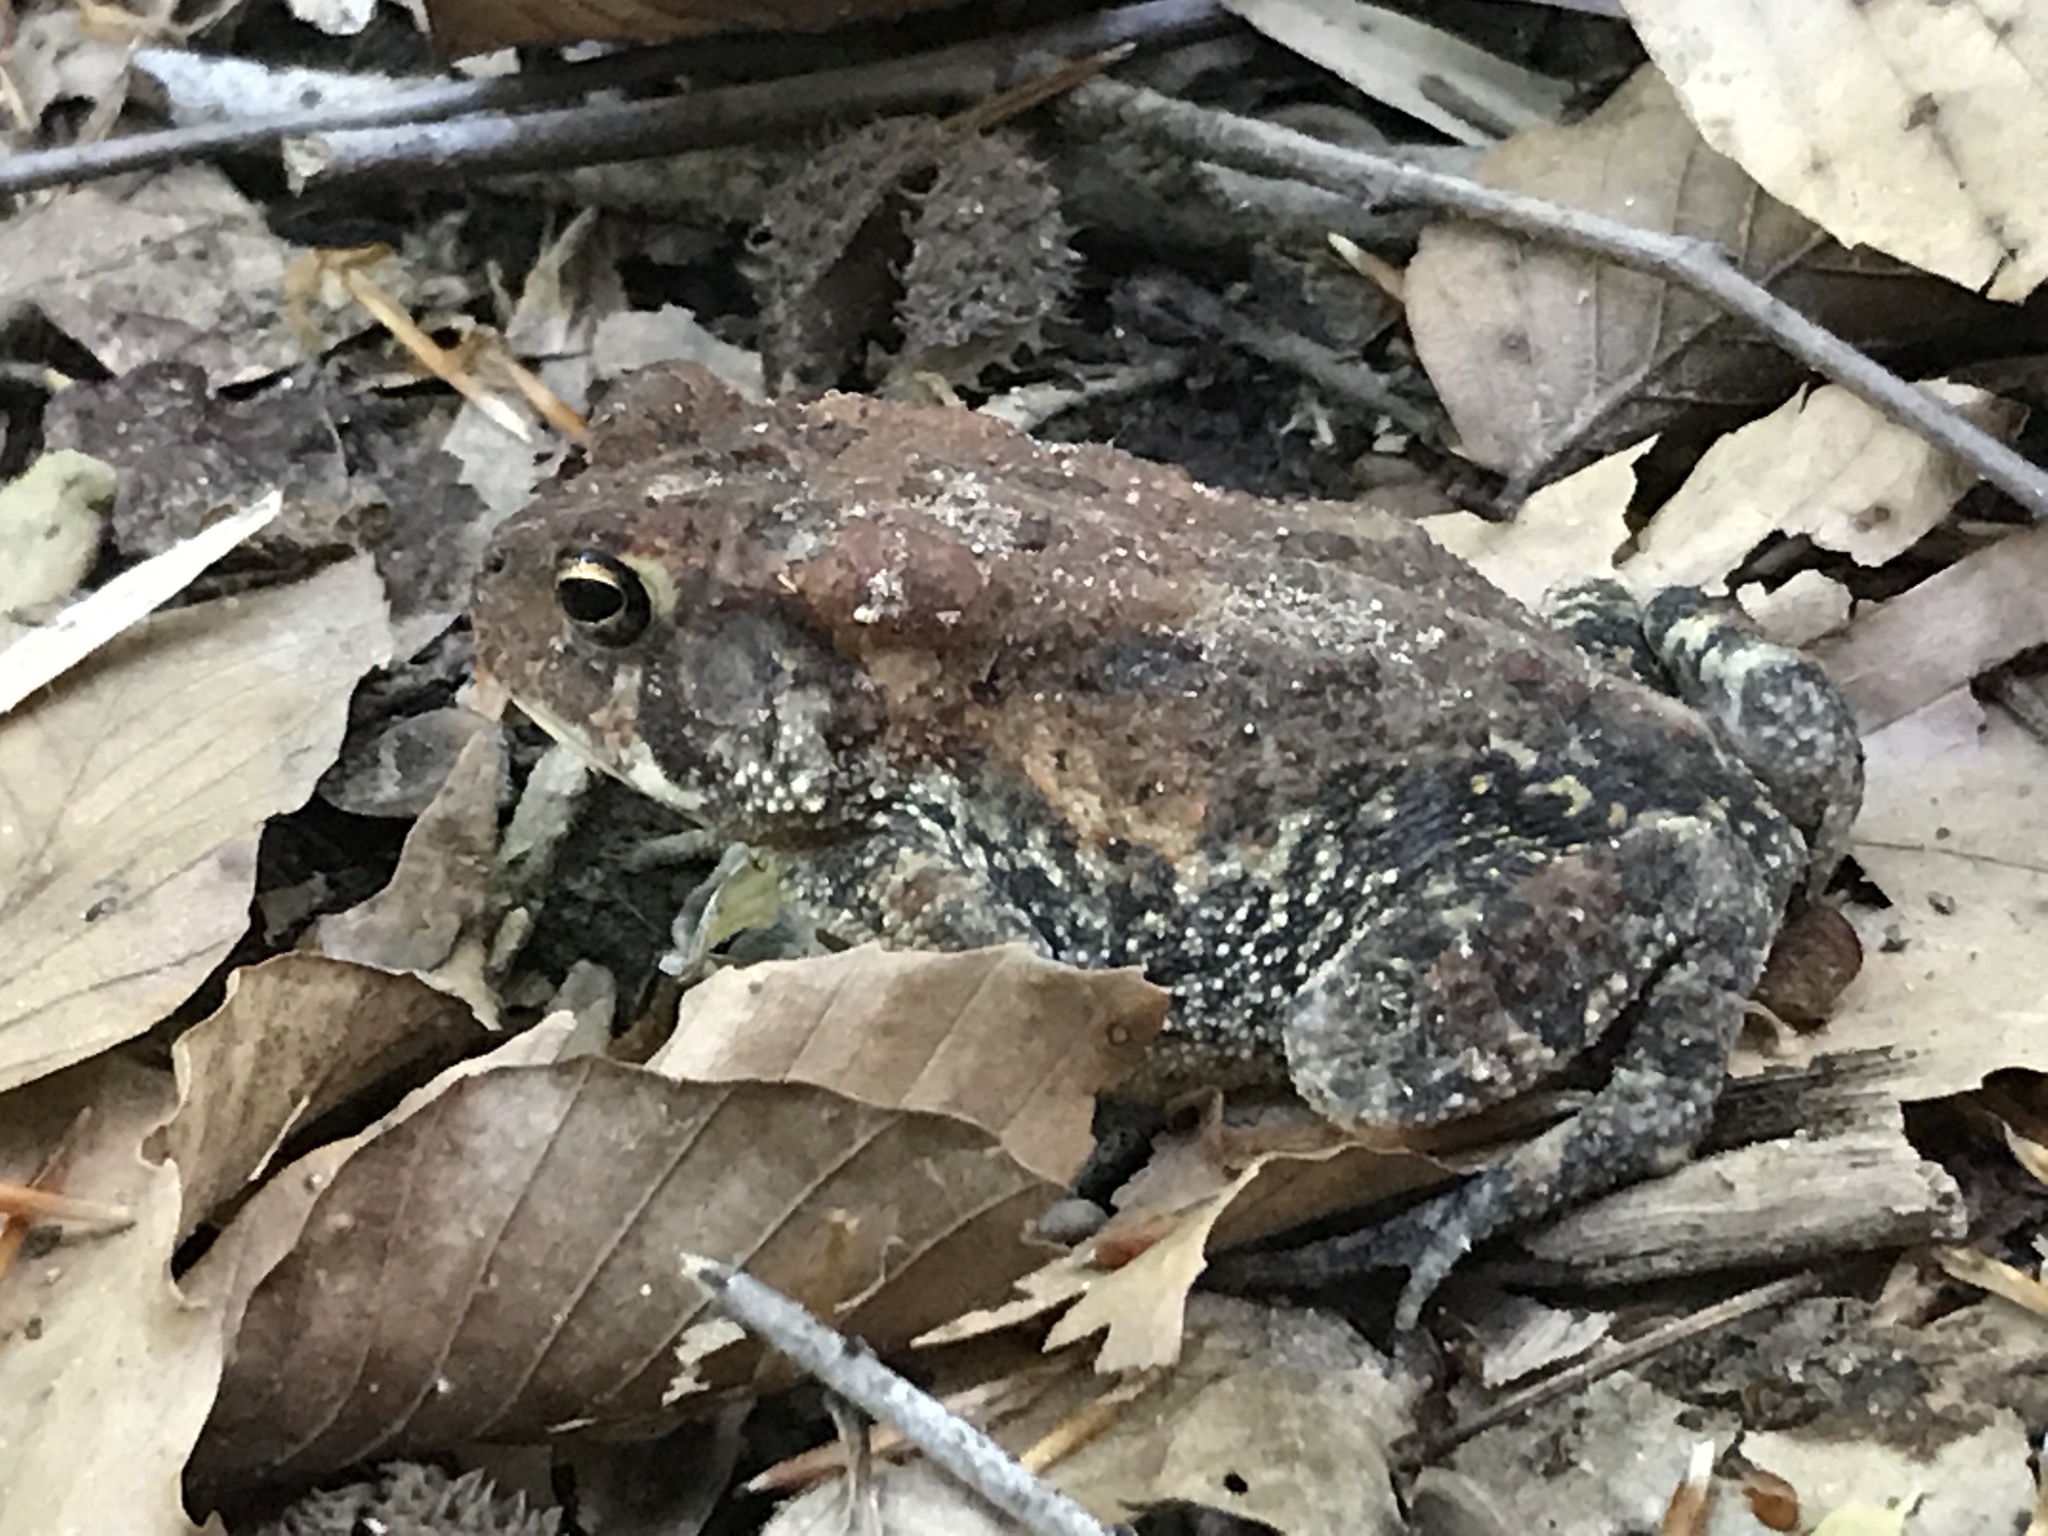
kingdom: Animalia
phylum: Chordata
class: Amphibia
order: Anura
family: Bufonidae
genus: Anaxyrus
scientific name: Anaxyrus americanus
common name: American toad
